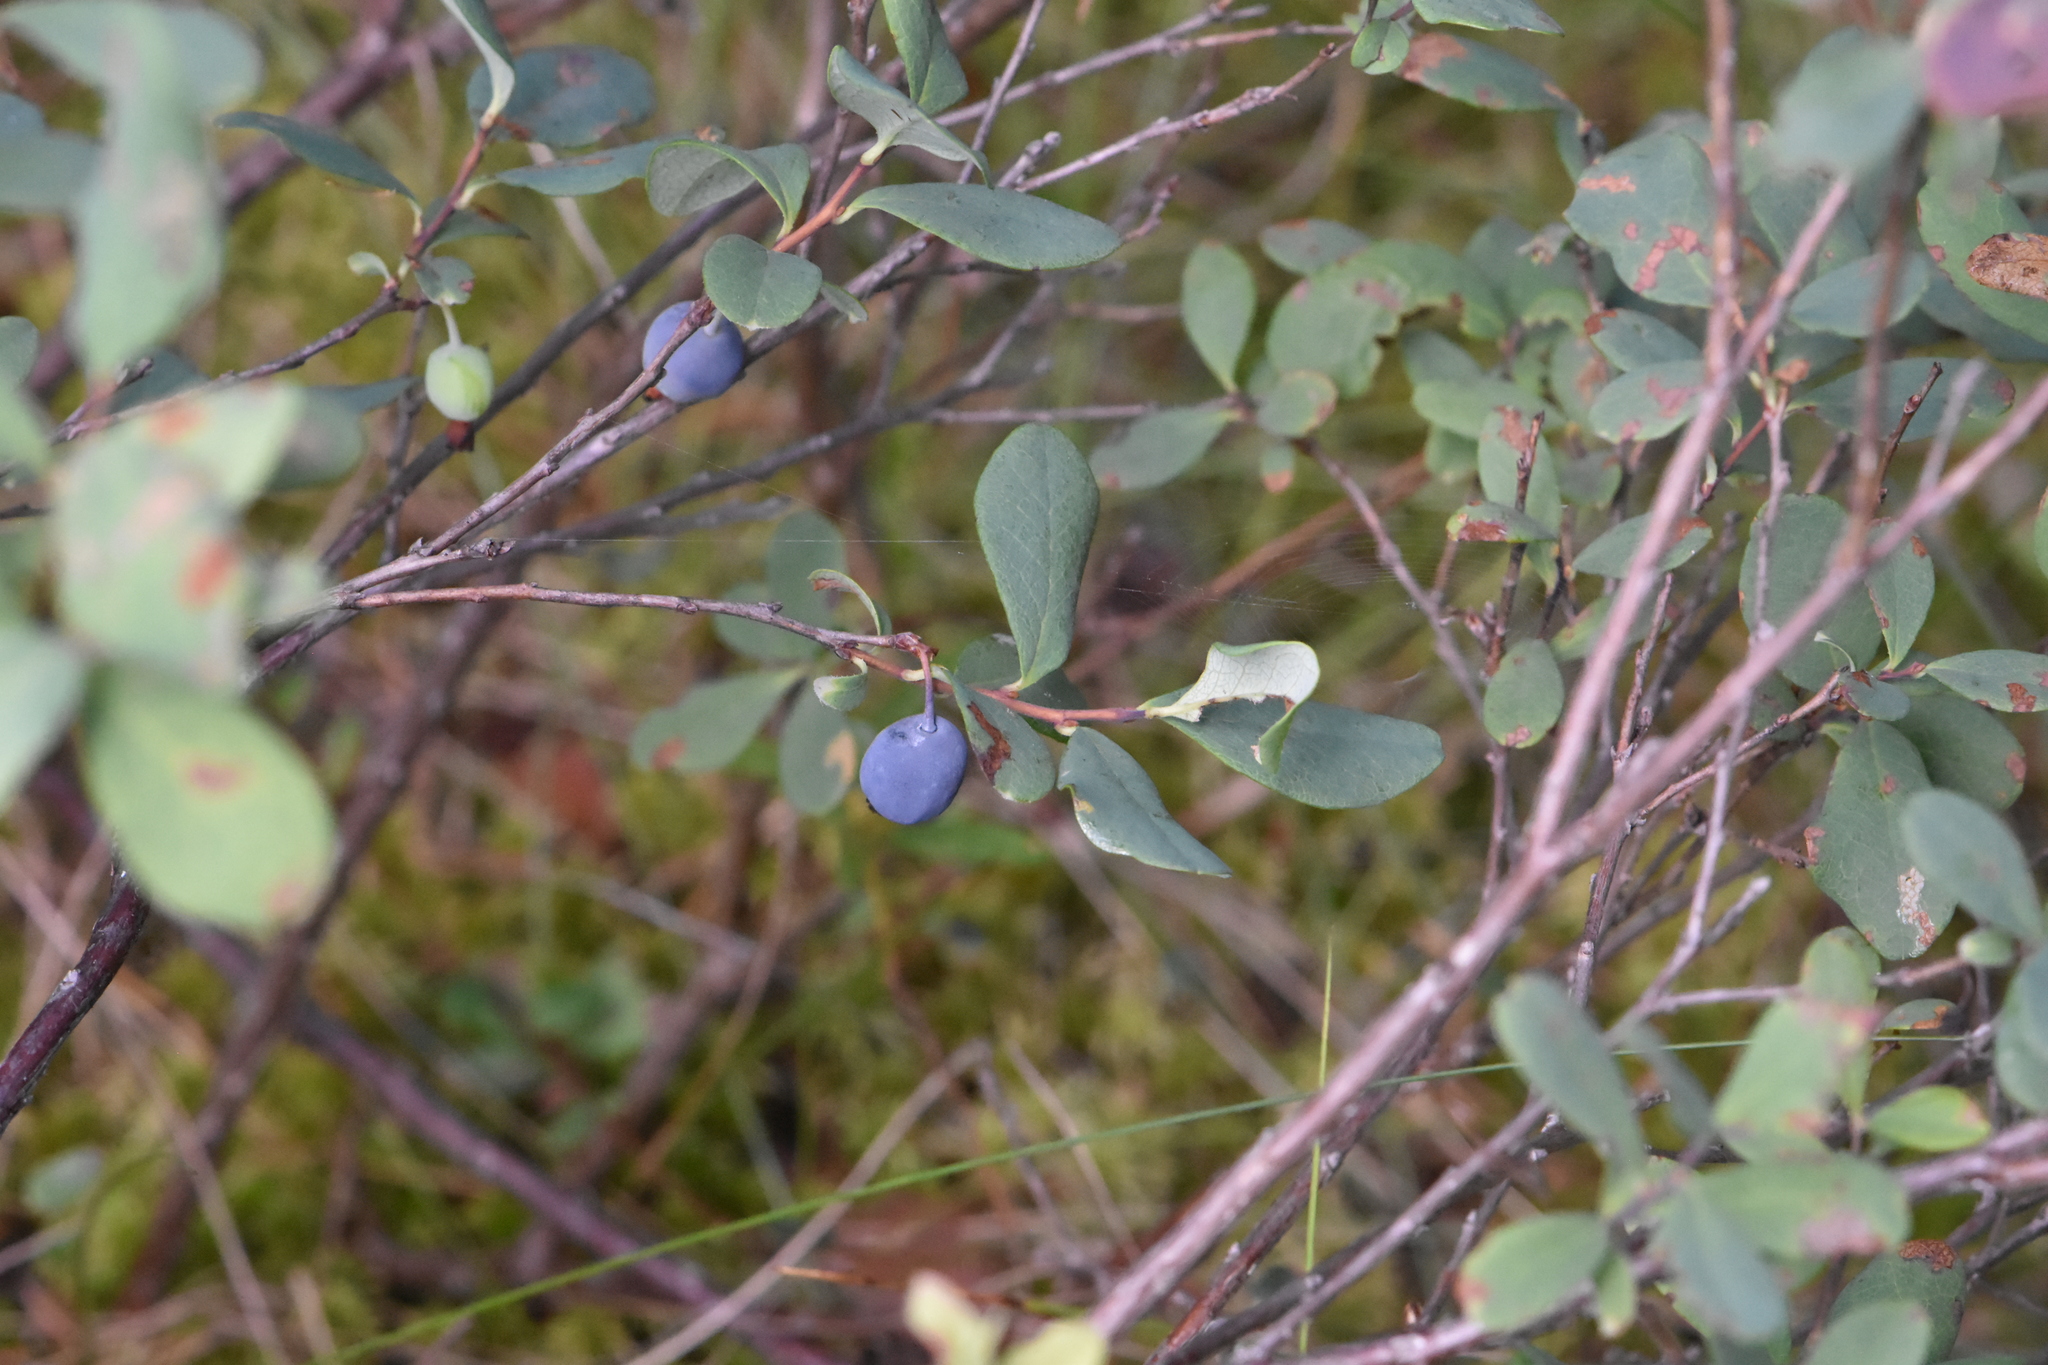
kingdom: Plantae
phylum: Tracheophyta
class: Magnoliopsida
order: Ericales
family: Ericaceae
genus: Vaccinium
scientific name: Vaccinium uliginosum
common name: Bog bilberry
